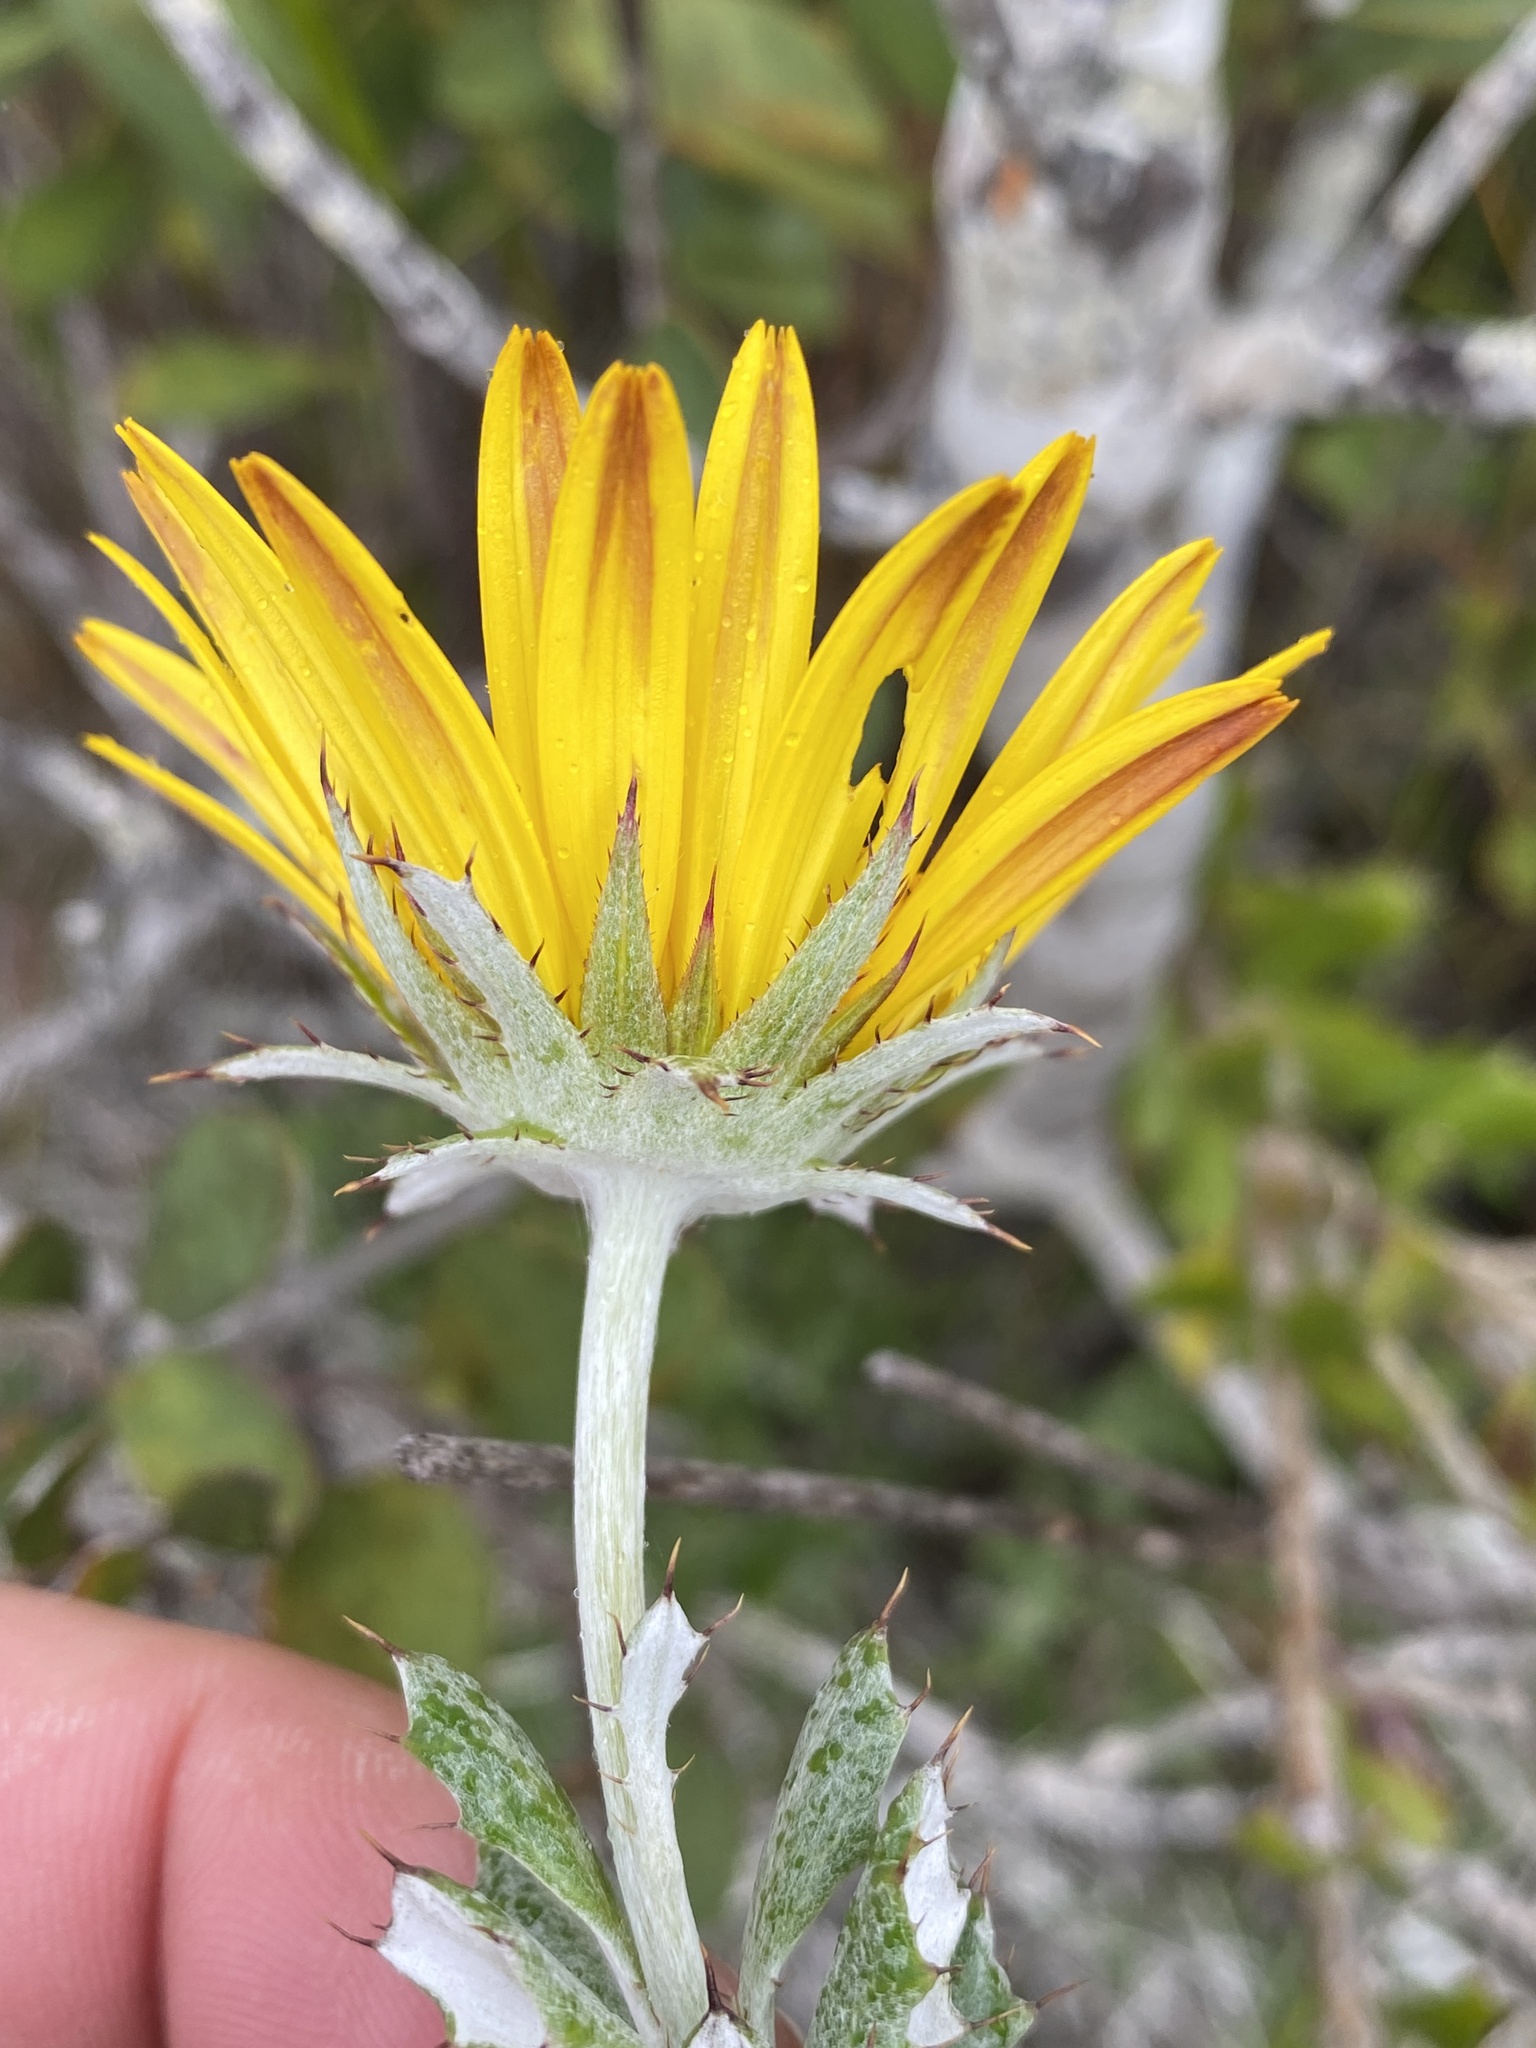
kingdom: Plantae
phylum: Tracheophyta
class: Magnoliopsida
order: Asterales
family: Asteraceae
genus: Berkheya
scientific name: Berkheya coriacea
